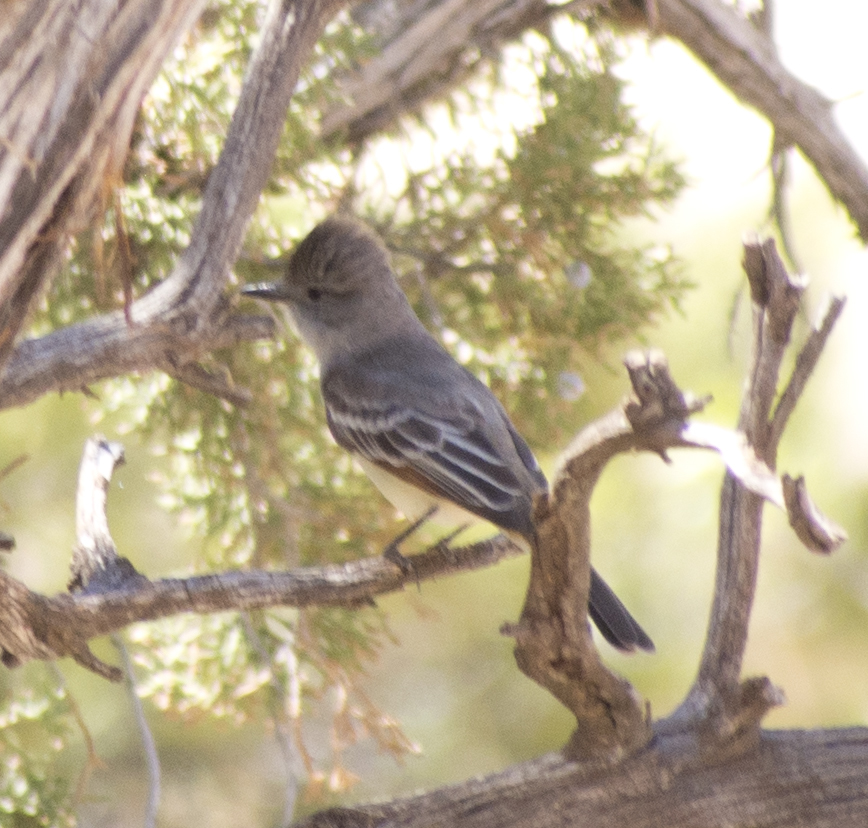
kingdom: Animalia
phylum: Chordata
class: Aves
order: Passeriformes
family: Tyrannidae
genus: Myiarchus
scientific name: Myiarchus cinerascens
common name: Ash-throated flycatcher
